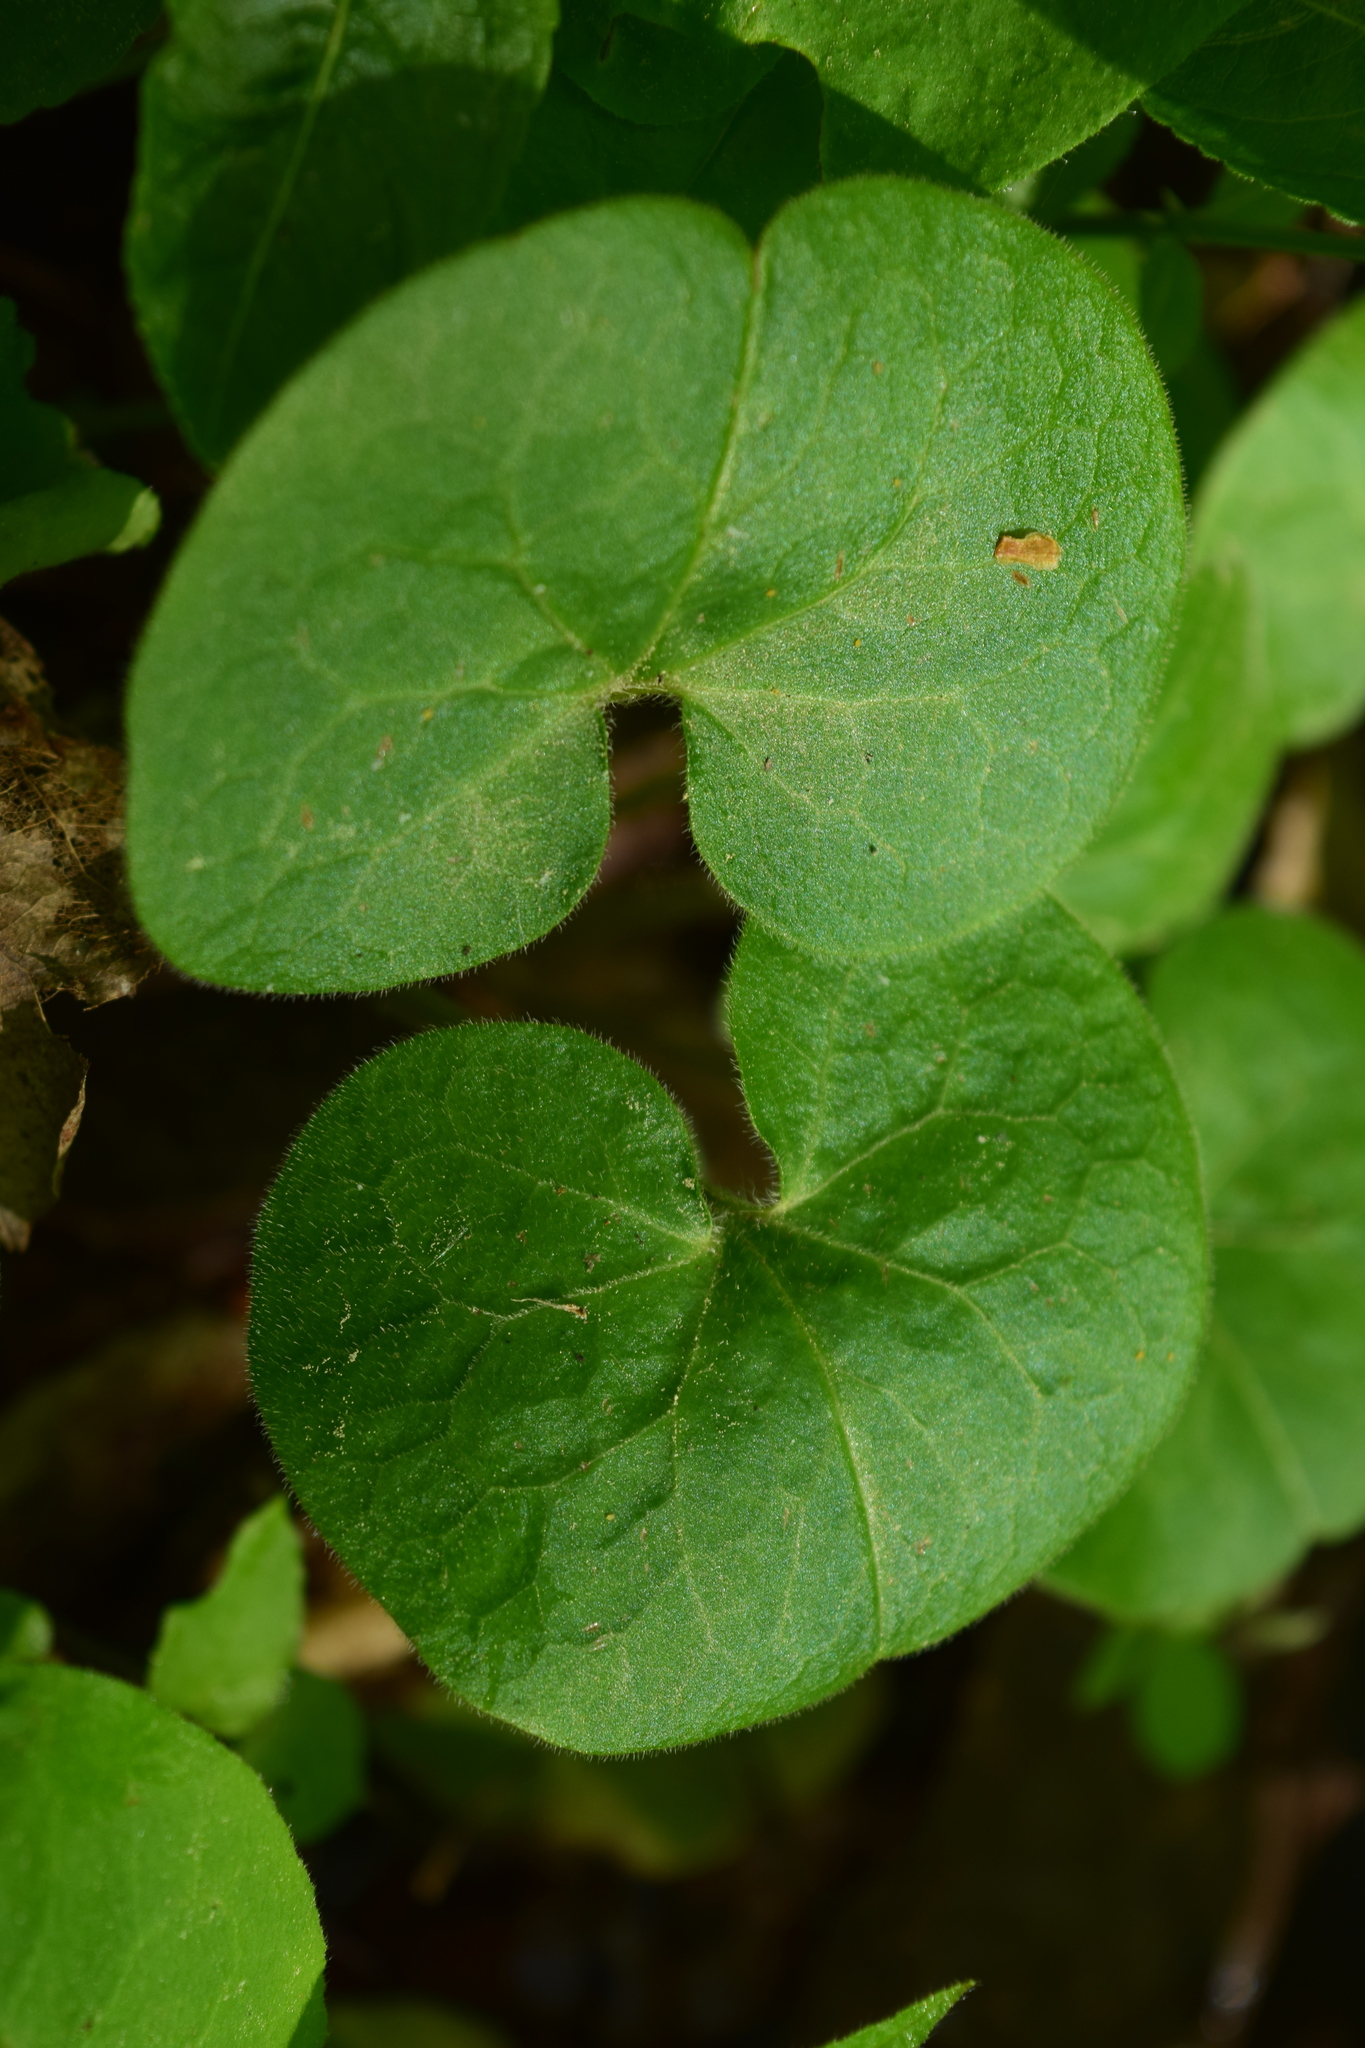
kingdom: Plantae
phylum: Tracheophyta
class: Magnoliopsida
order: Piperales
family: Aristolochiaceae
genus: Asarum
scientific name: Asarum europaeum
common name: Asarabacca
